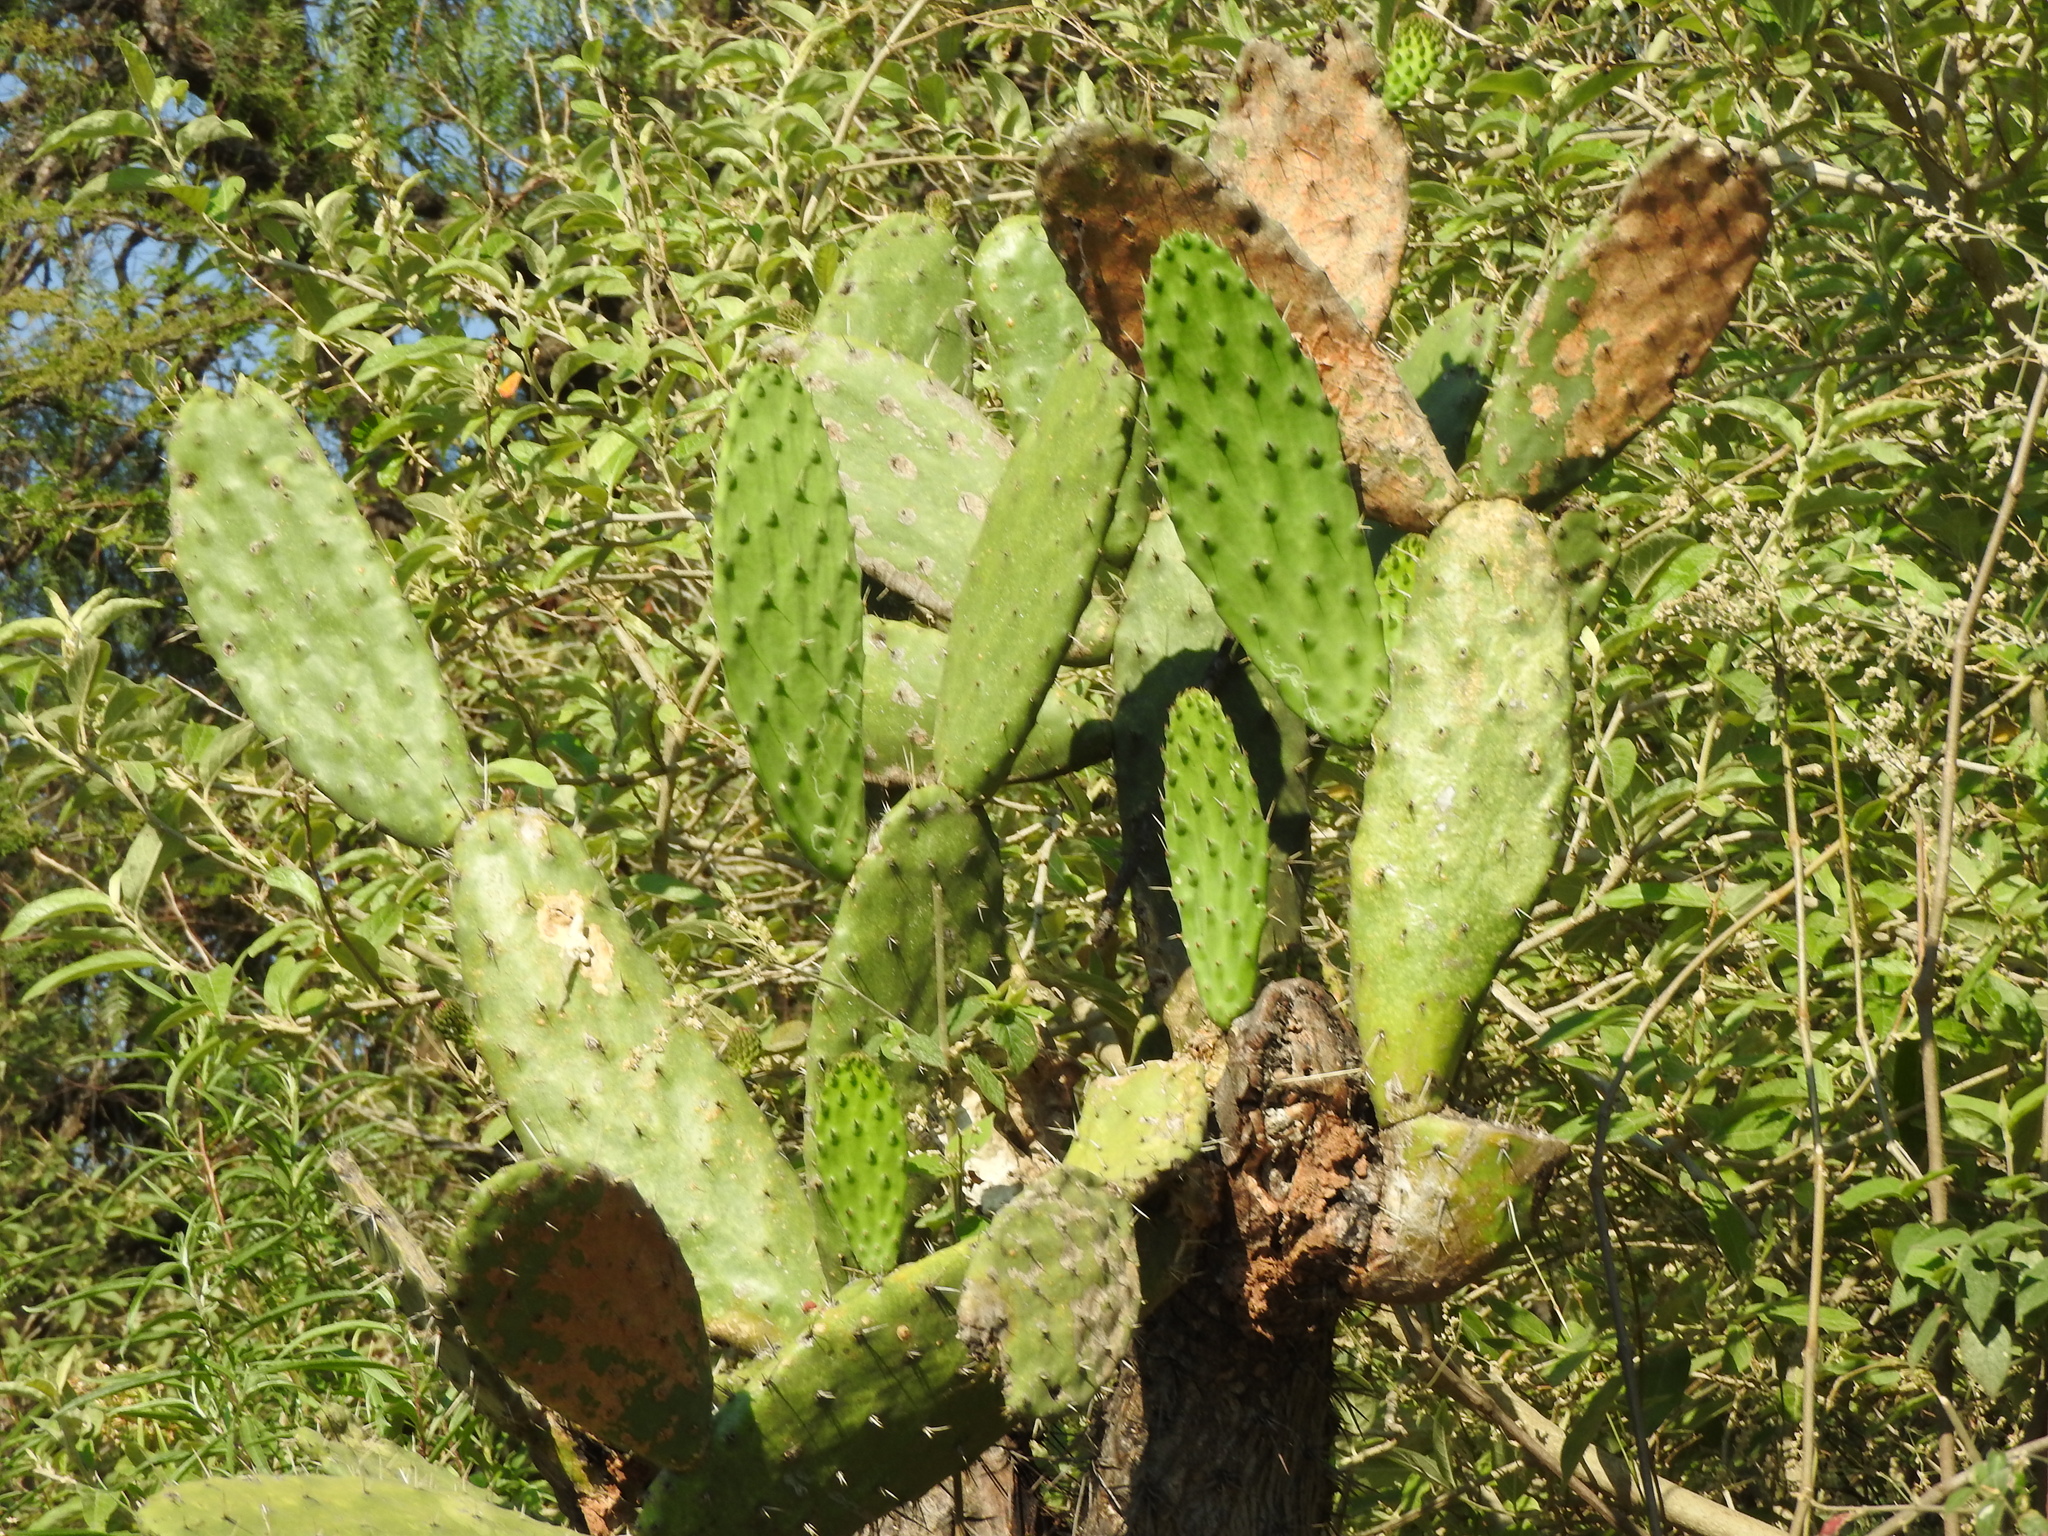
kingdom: Plantae
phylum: Tracheophyta
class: Magnoliopsida
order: Caryophyllales
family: Cactaceae
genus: Opuntia
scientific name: Opuntia jaliscana
